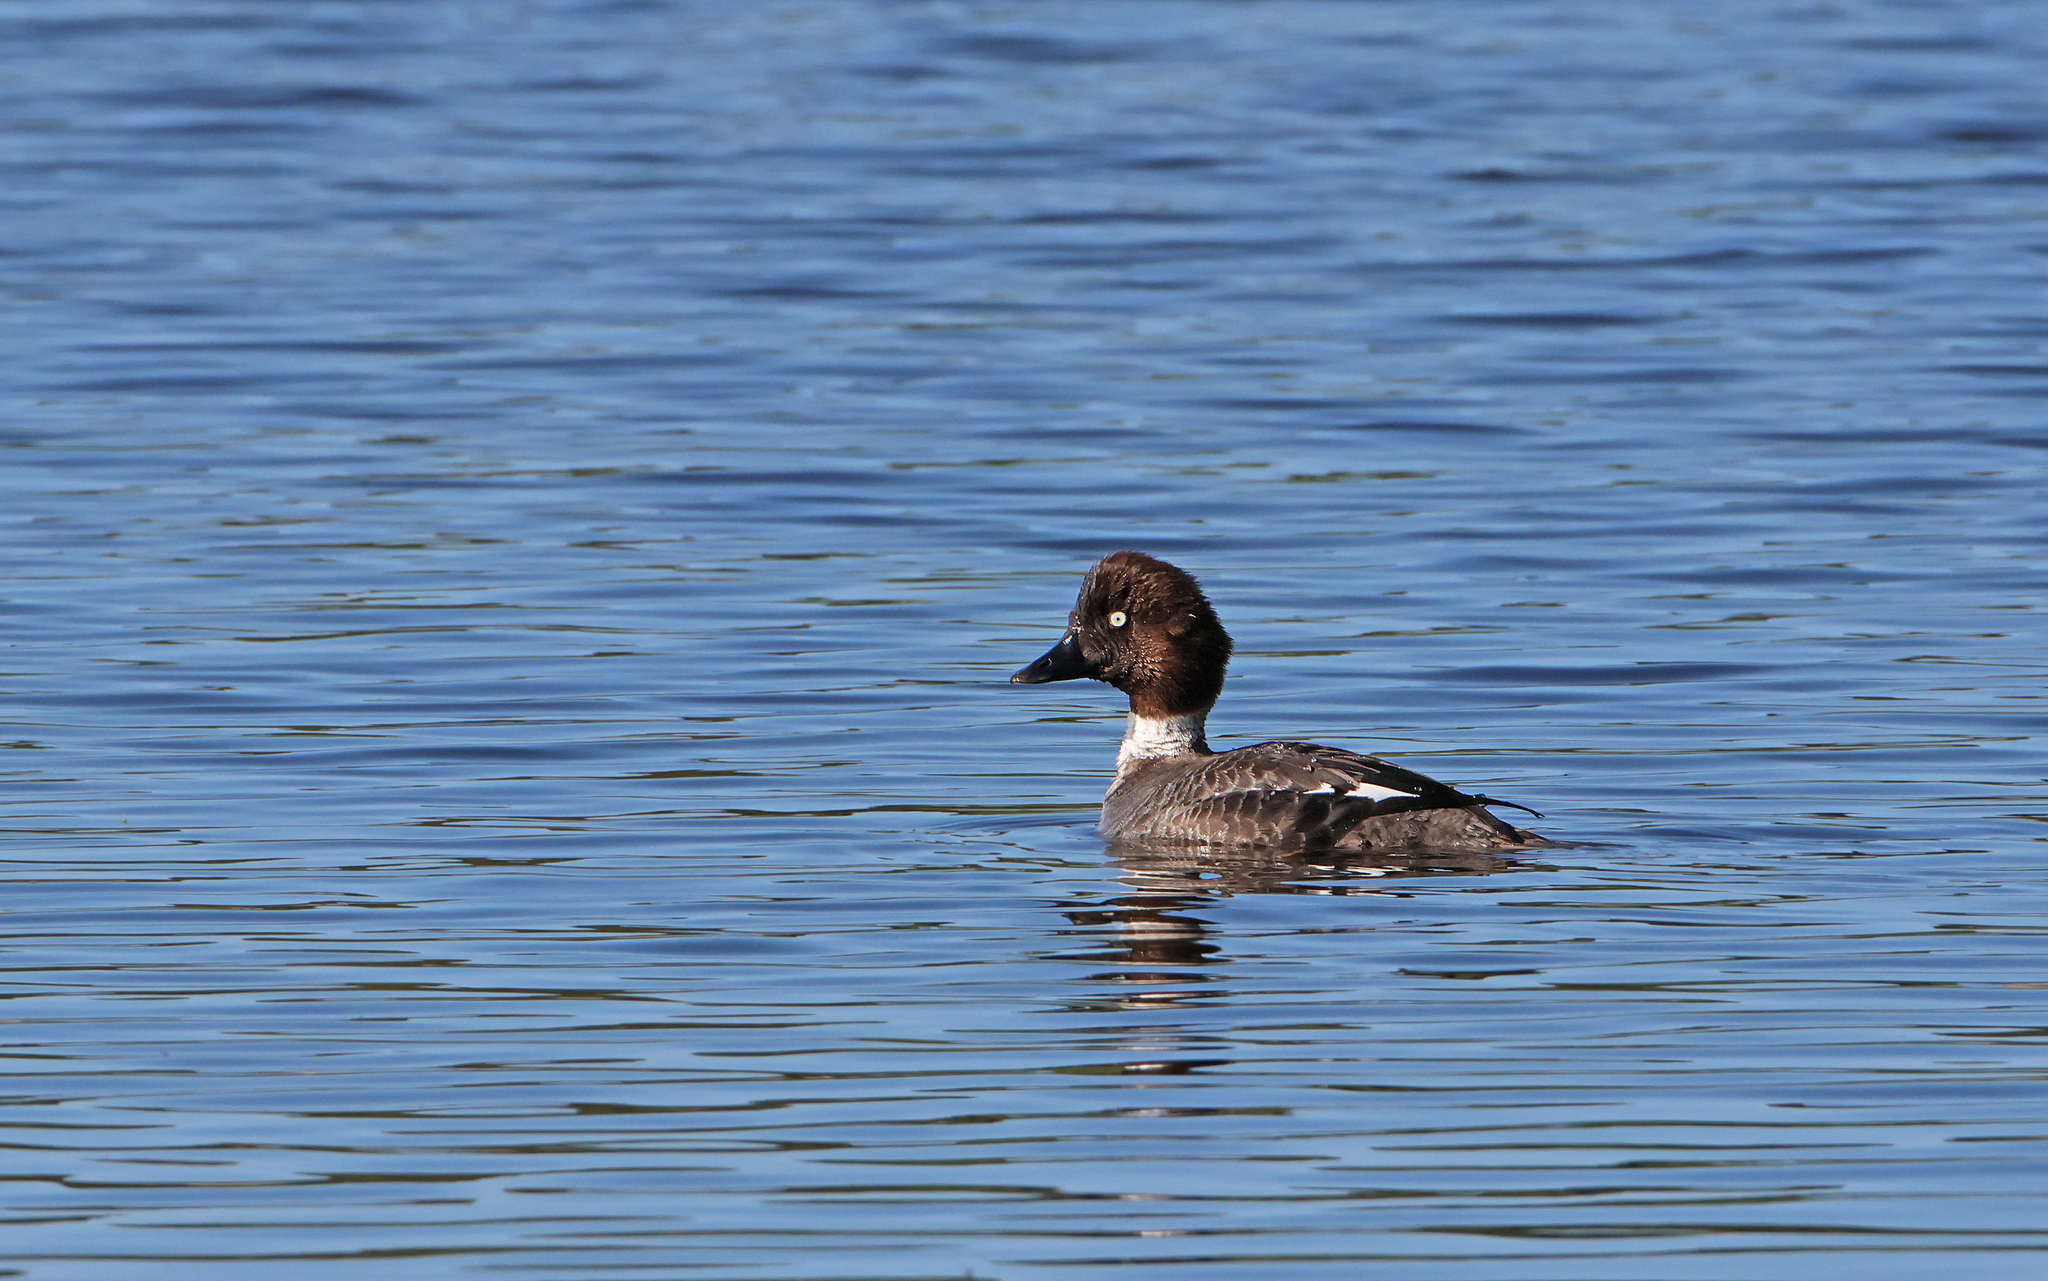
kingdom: Animalia
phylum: Chordata
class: Aves
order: Anseriformes
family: Anatidae
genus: Bucephala
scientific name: Bucephala clangula
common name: Common goldeneye
